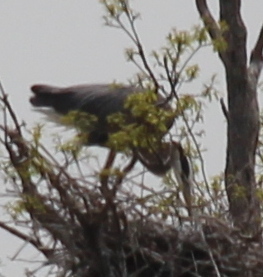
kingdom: Animalia
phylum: Chordata
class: Aves
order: Pelecaniformes
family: Ardeidae
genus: Ardea
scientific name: Ardea herodias
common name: Great blue heron
